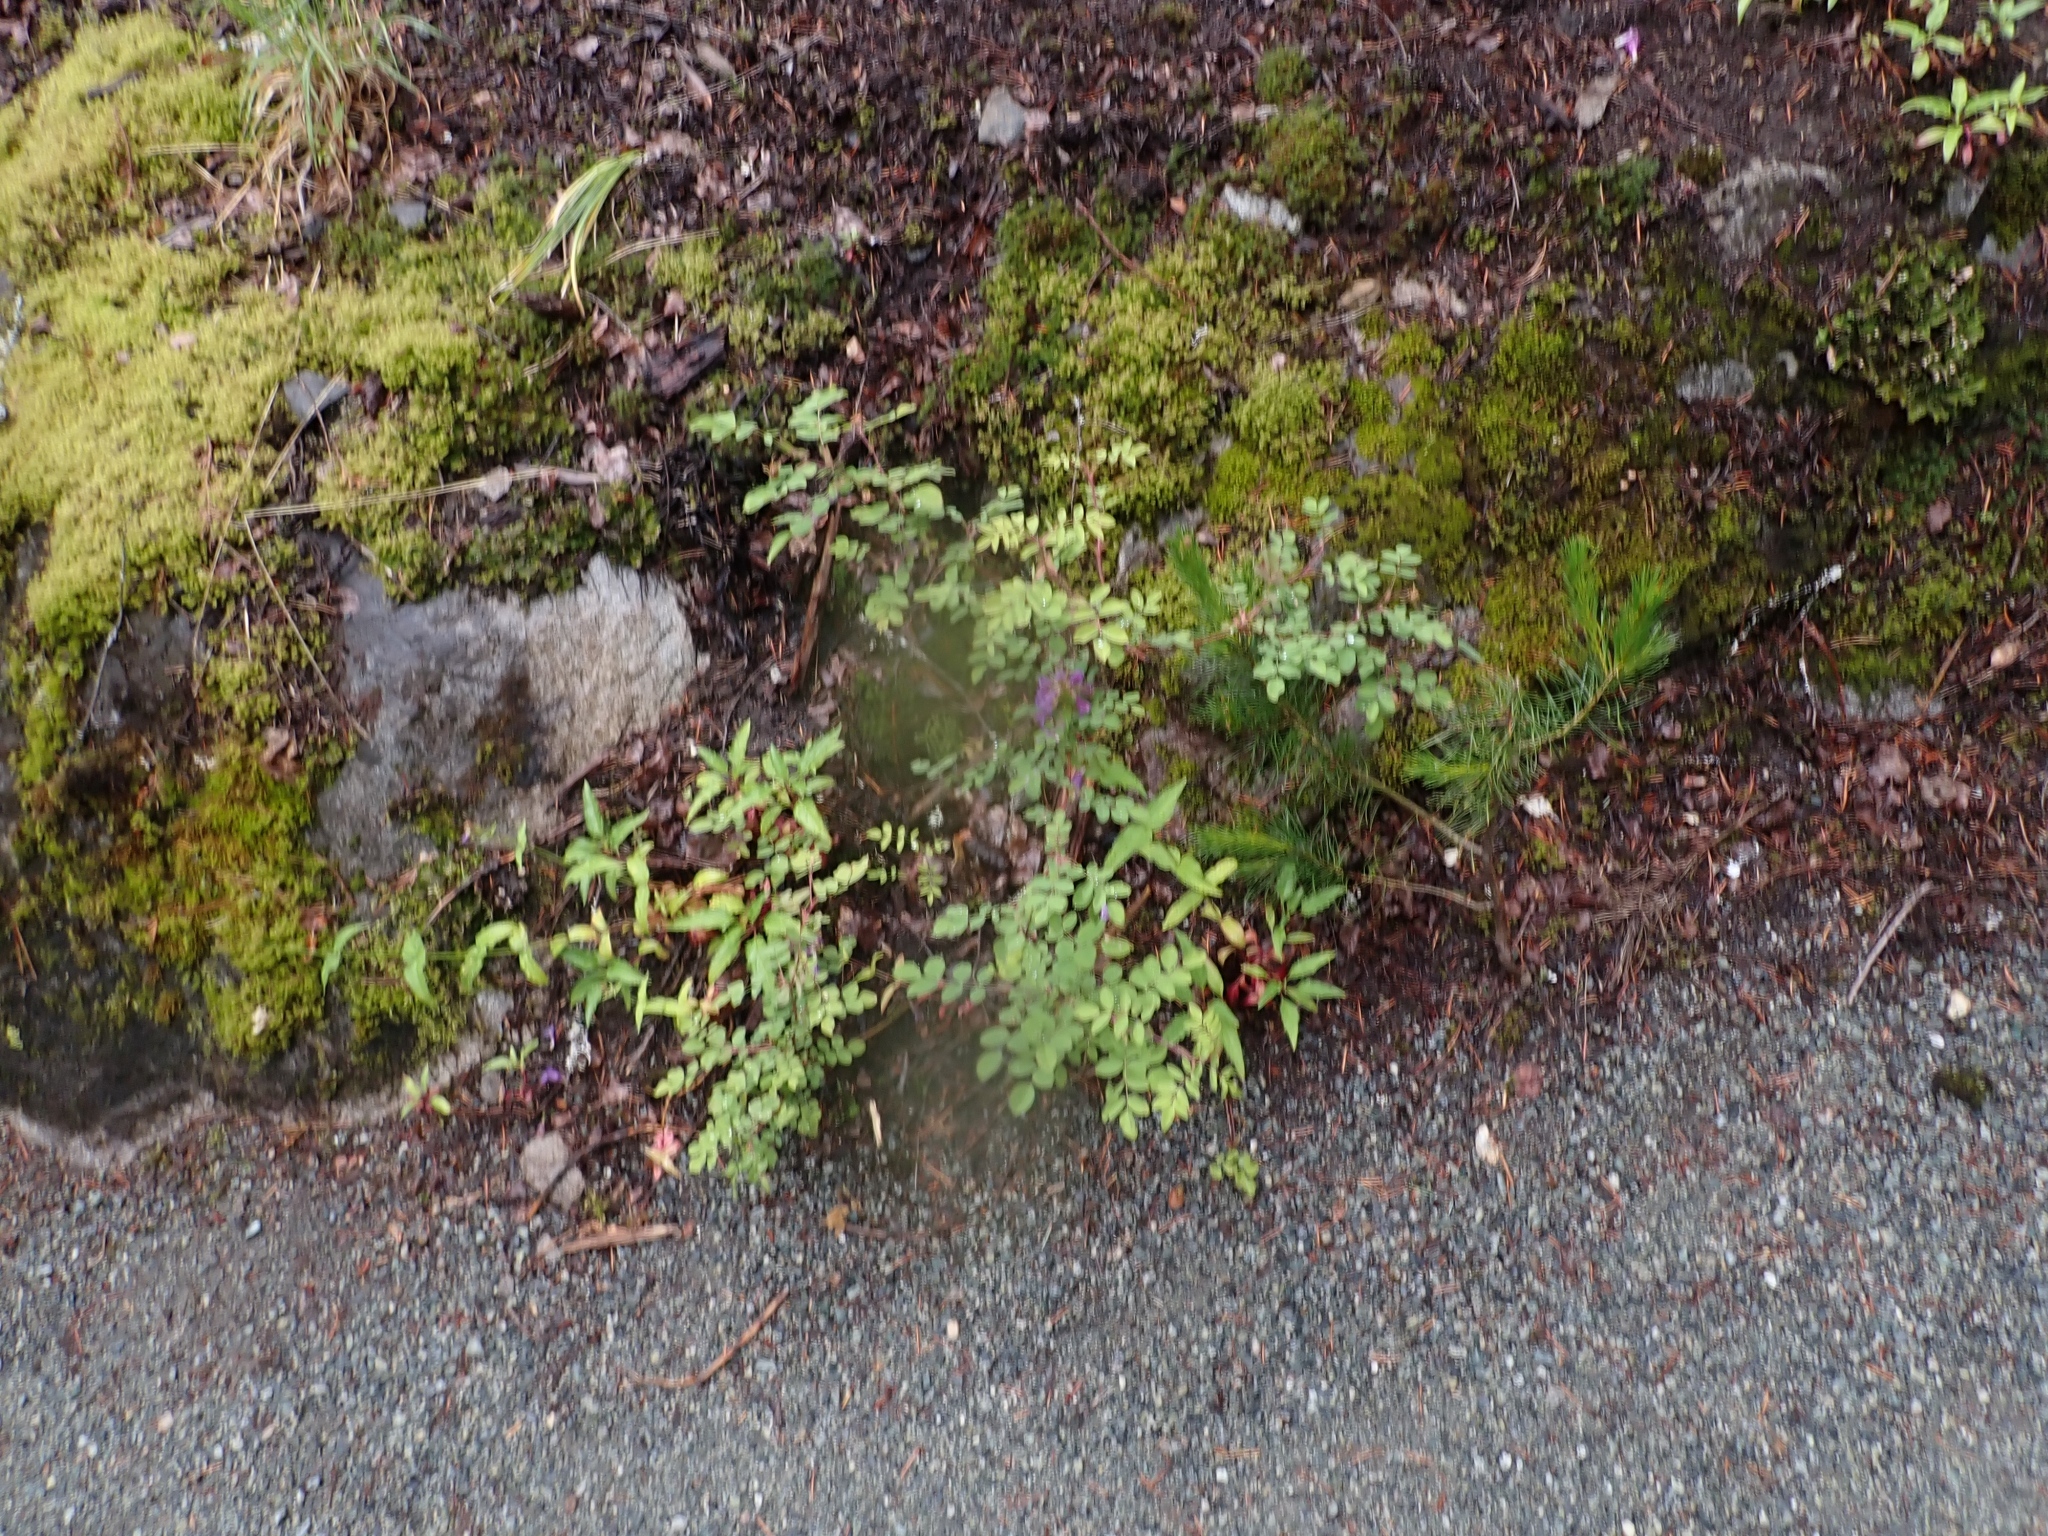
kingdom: Plantae
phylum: Tracheophyta
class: Magnoliopsida
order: Lamiales
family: Plantaginaceae
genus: Penstemon
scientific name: Penstemon serrulatus
